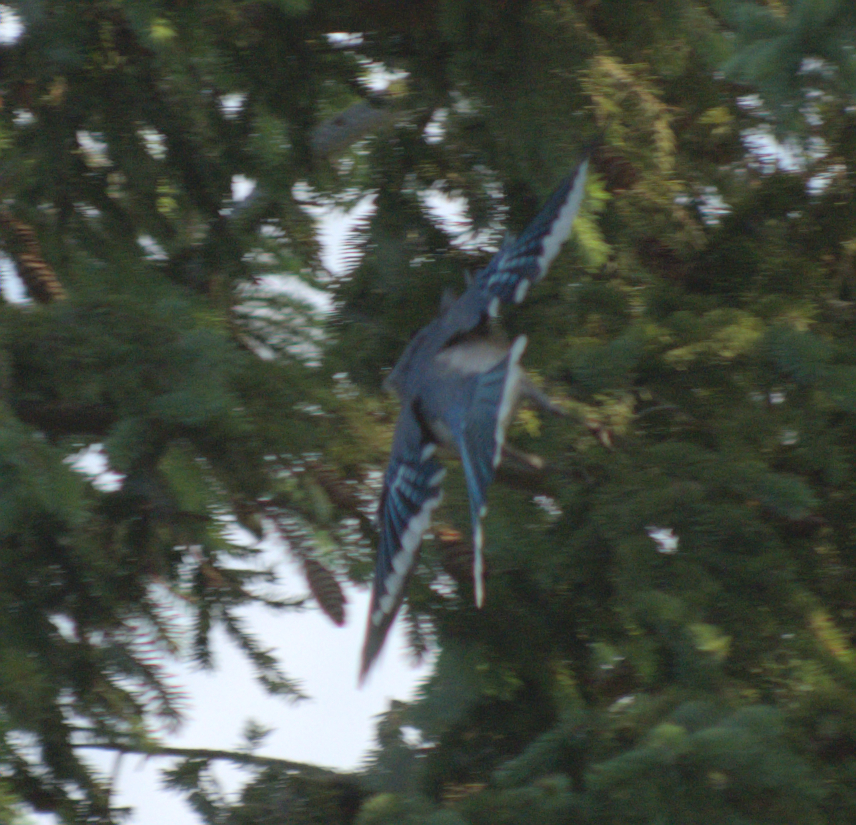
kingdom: Animalia
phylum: Chordata
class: Aves
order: Passeriformes
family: Corvidae
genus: Cyanocitta
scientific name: Cyanocitta cristata
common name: Blue jay
